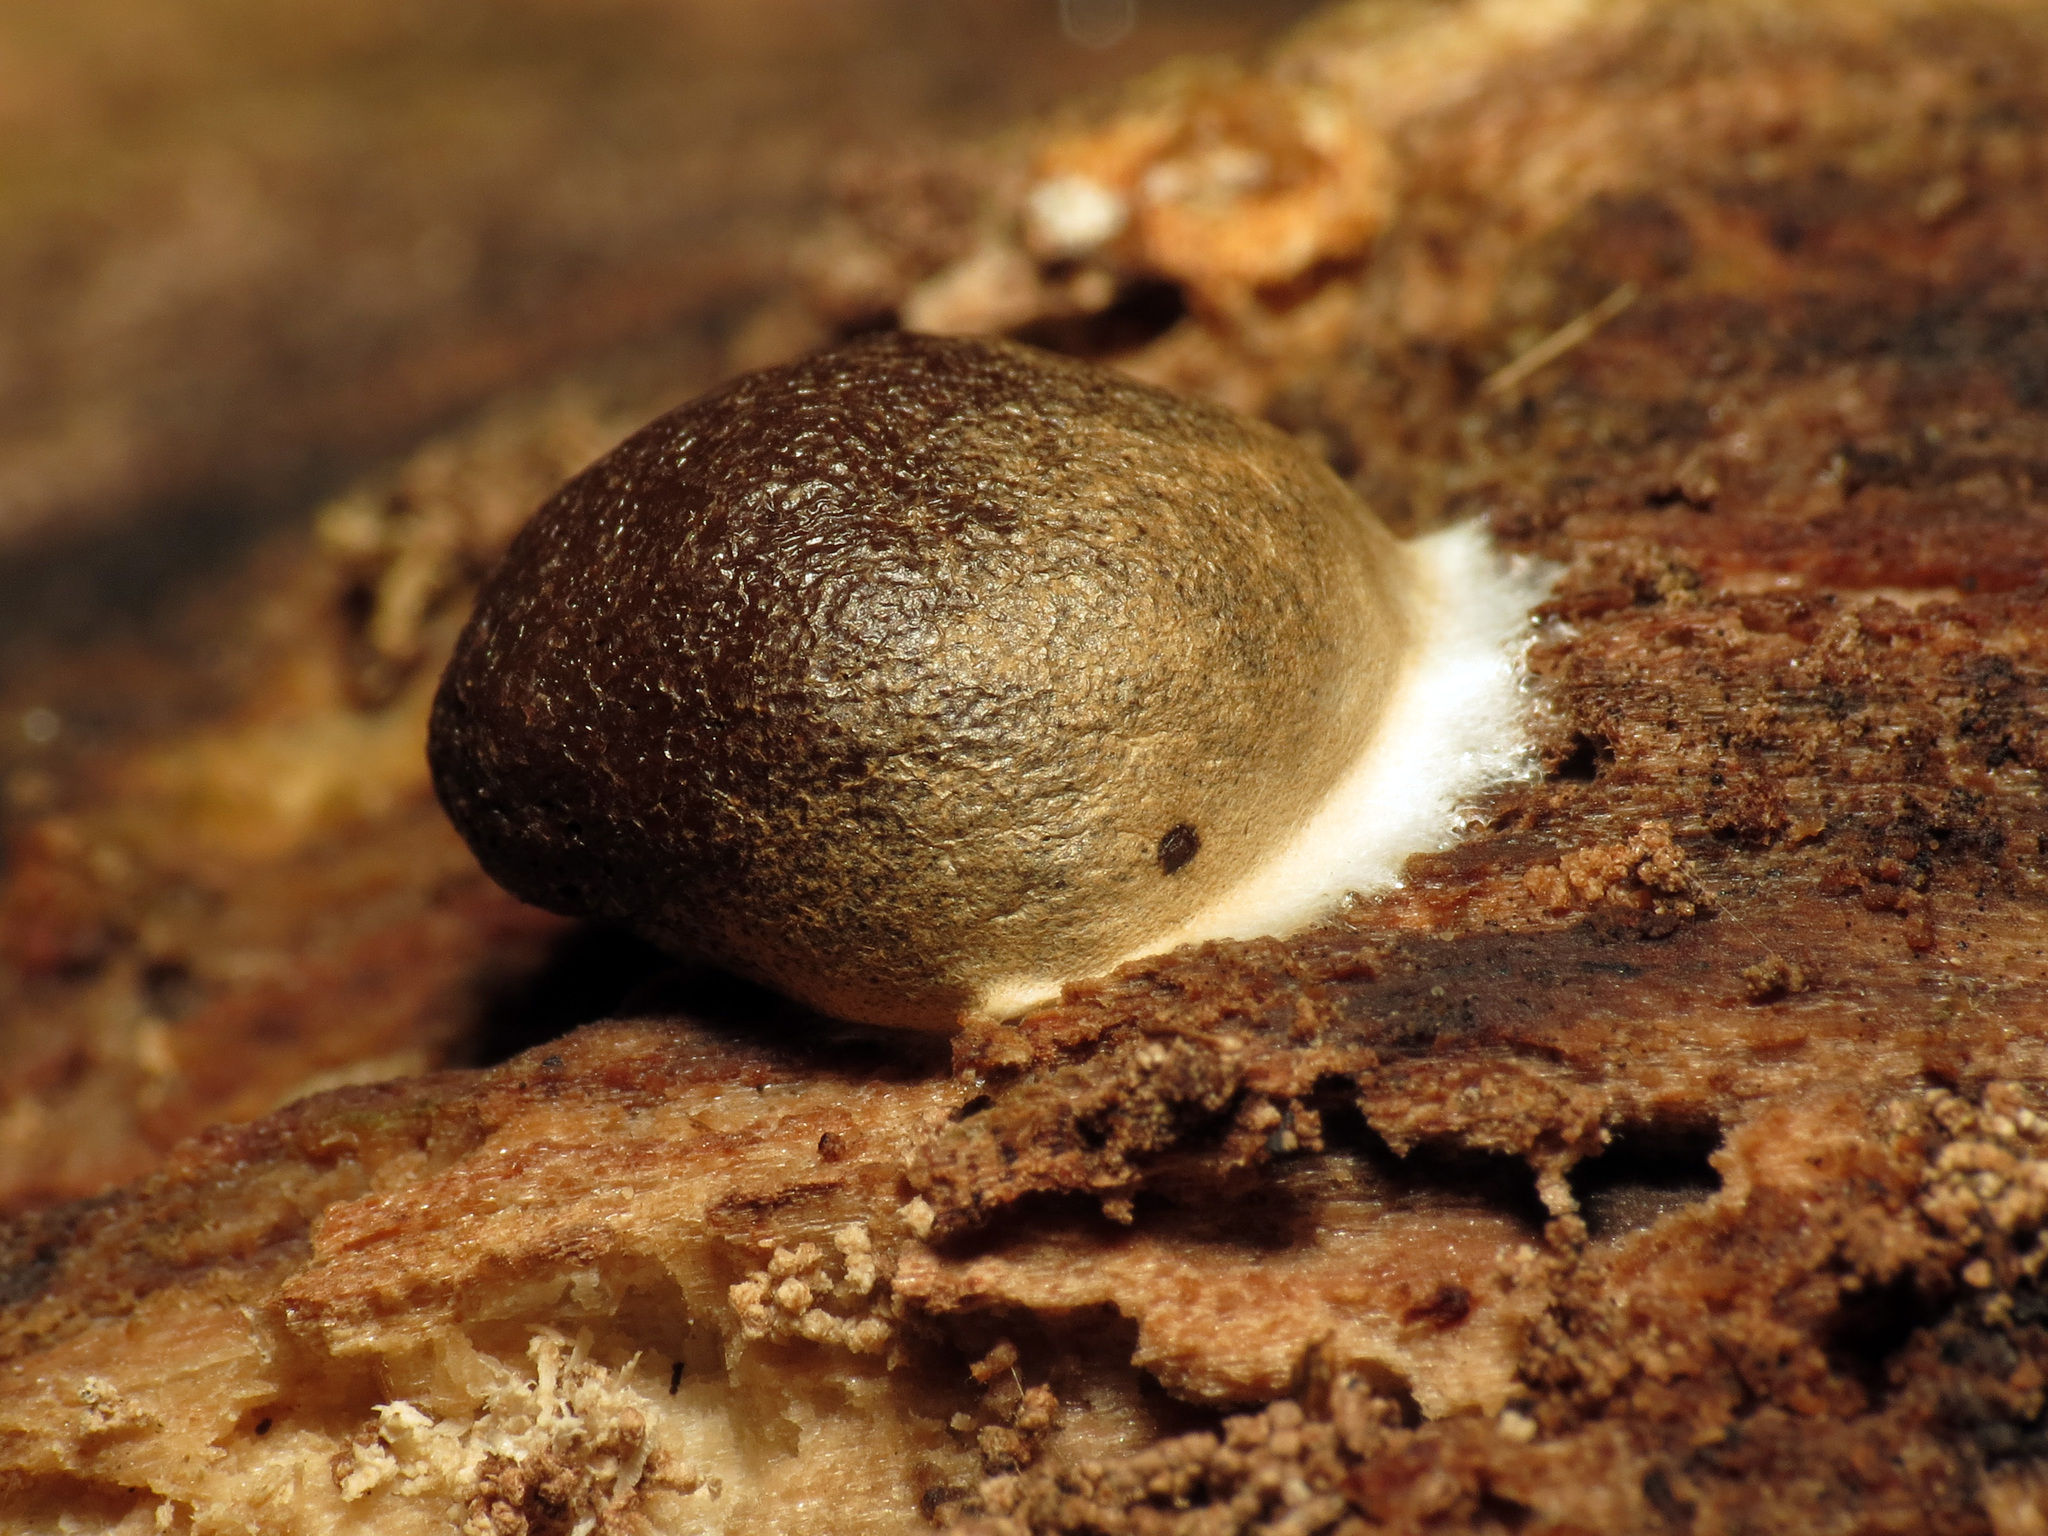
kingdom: Protozoa
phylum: Mycetozoa
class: Myxomycetes
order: Cribrariales
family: Tubiferaceae
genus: Reticularia
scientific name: Reticularia lycoperdon
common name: False puffball
